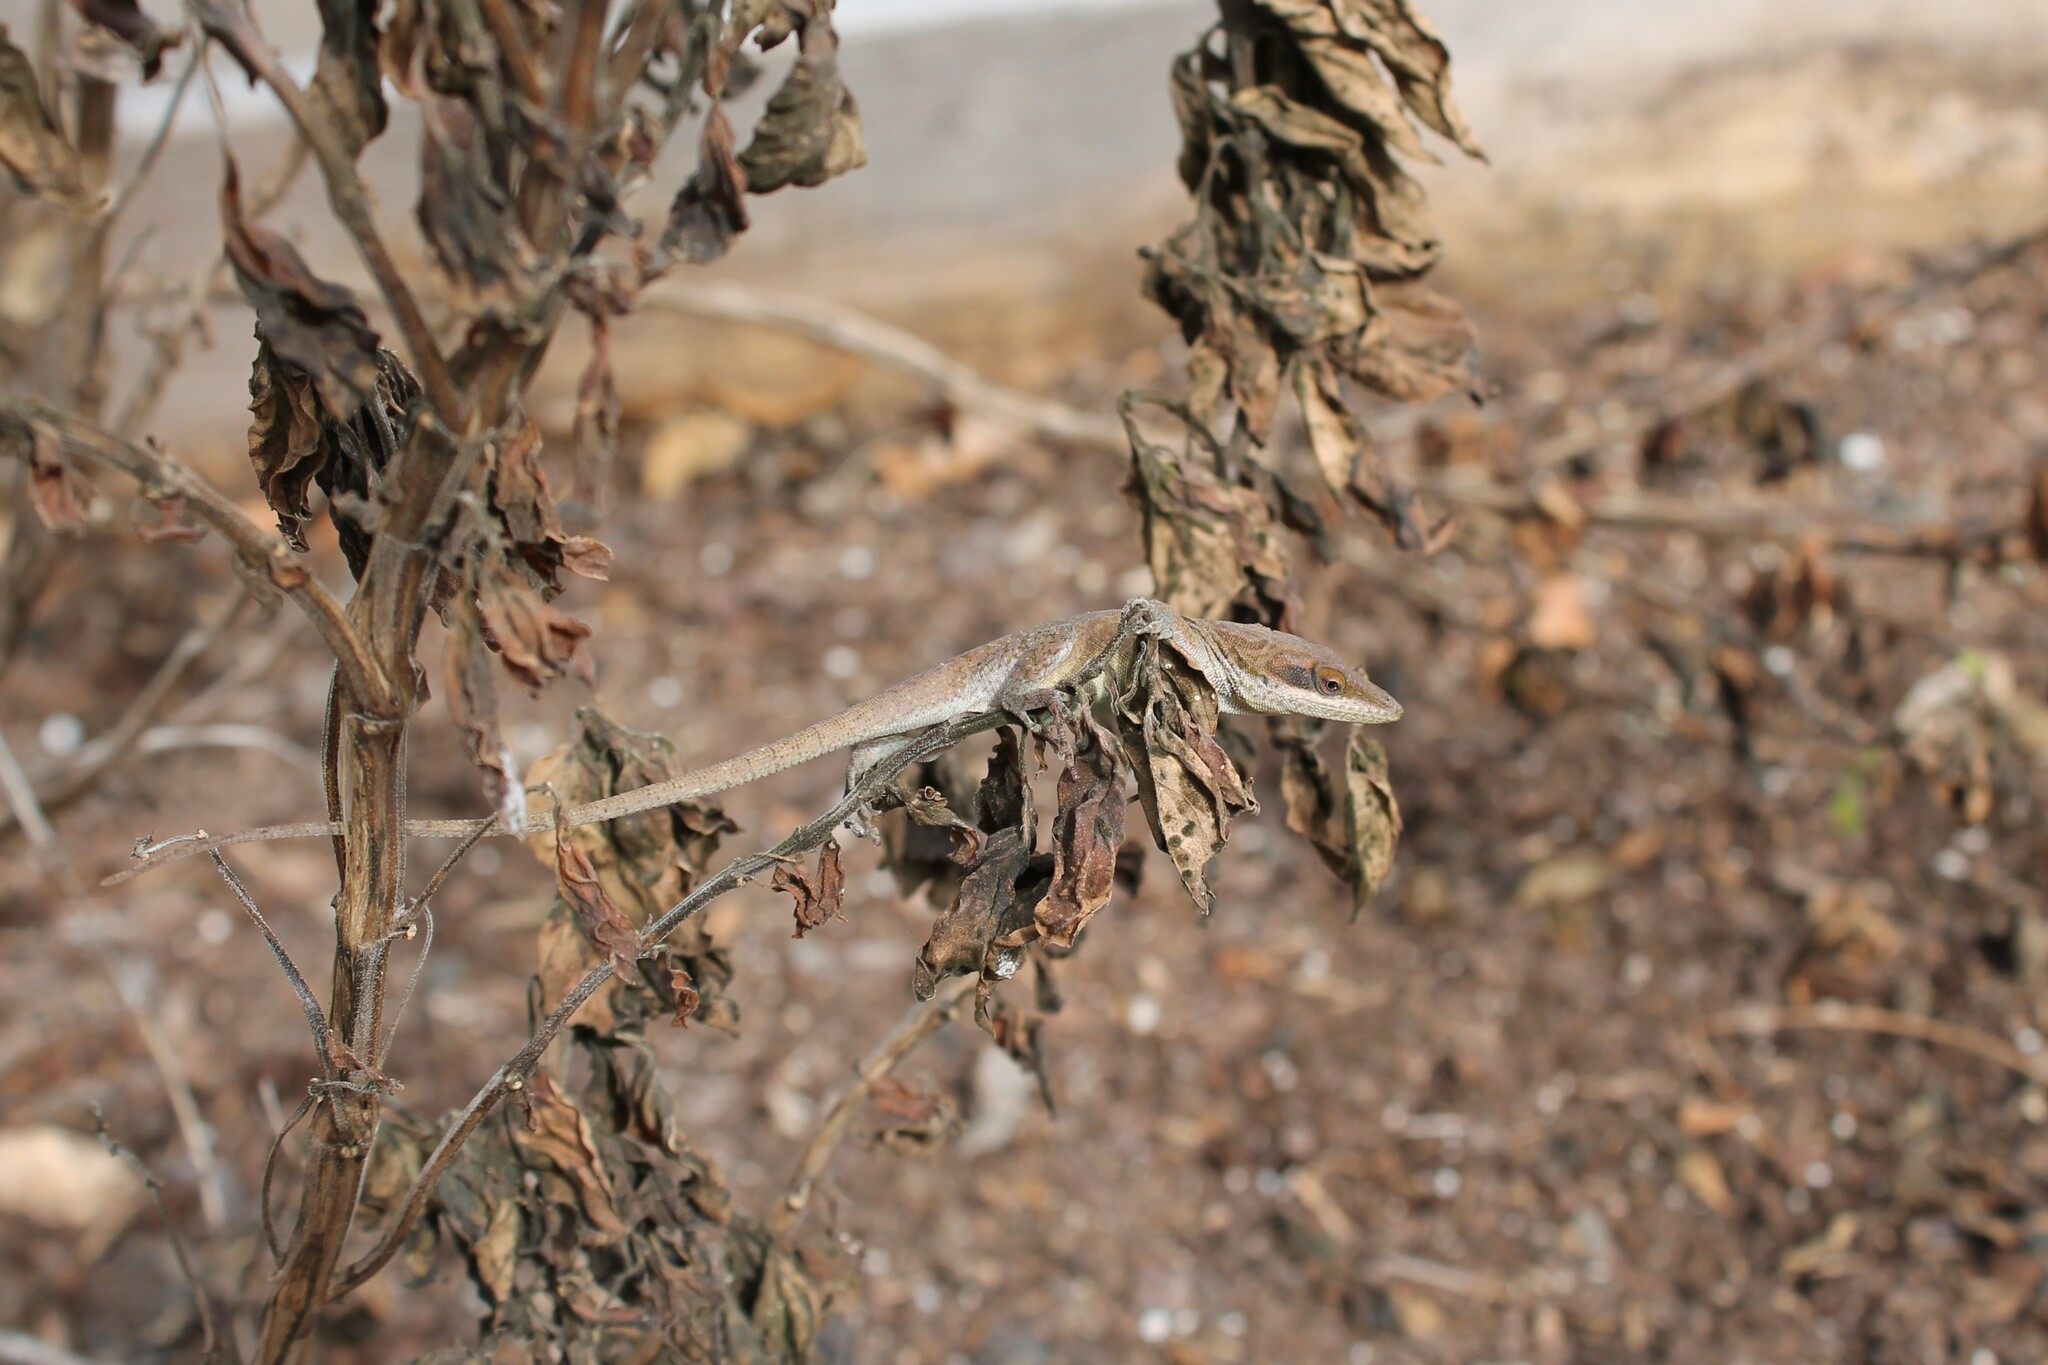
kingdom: Animalia
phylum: Chordata
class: Squamata
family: Dactyloidae
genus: Anolis
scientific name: Anolis carolinensis
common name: Green anole
